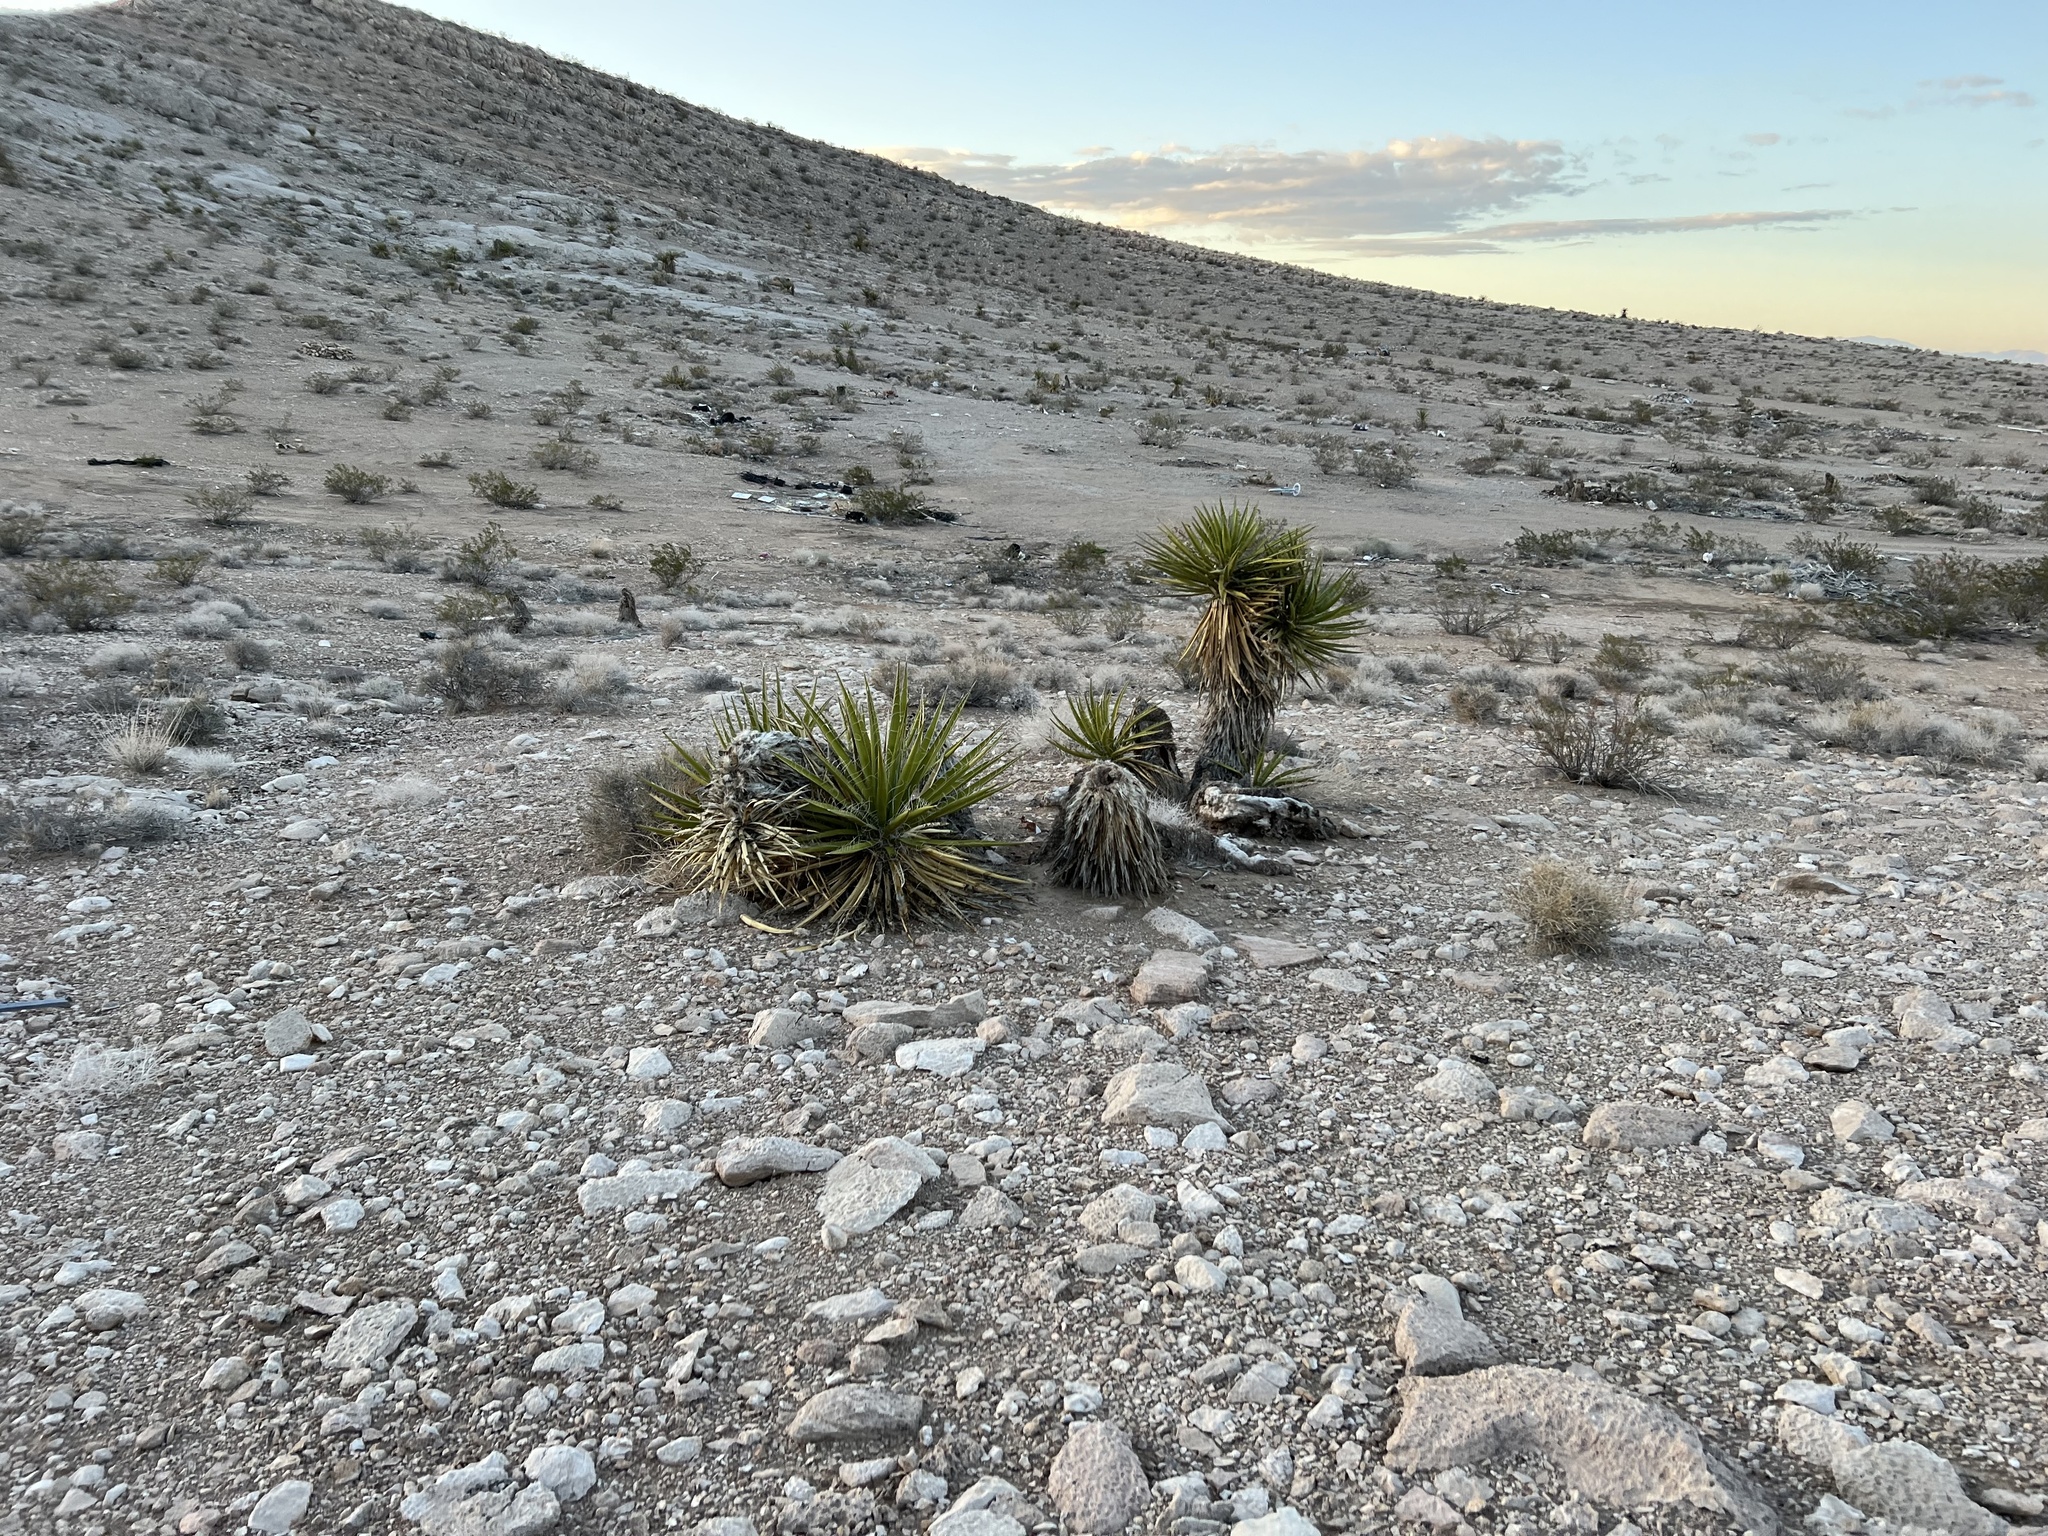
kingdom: Plantae
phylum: Tracheophyta
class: Liliopsida
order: Asparagales
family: Asparagaceae
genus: Yucca
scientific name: Yucca schidigera
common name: Mojave yucca
